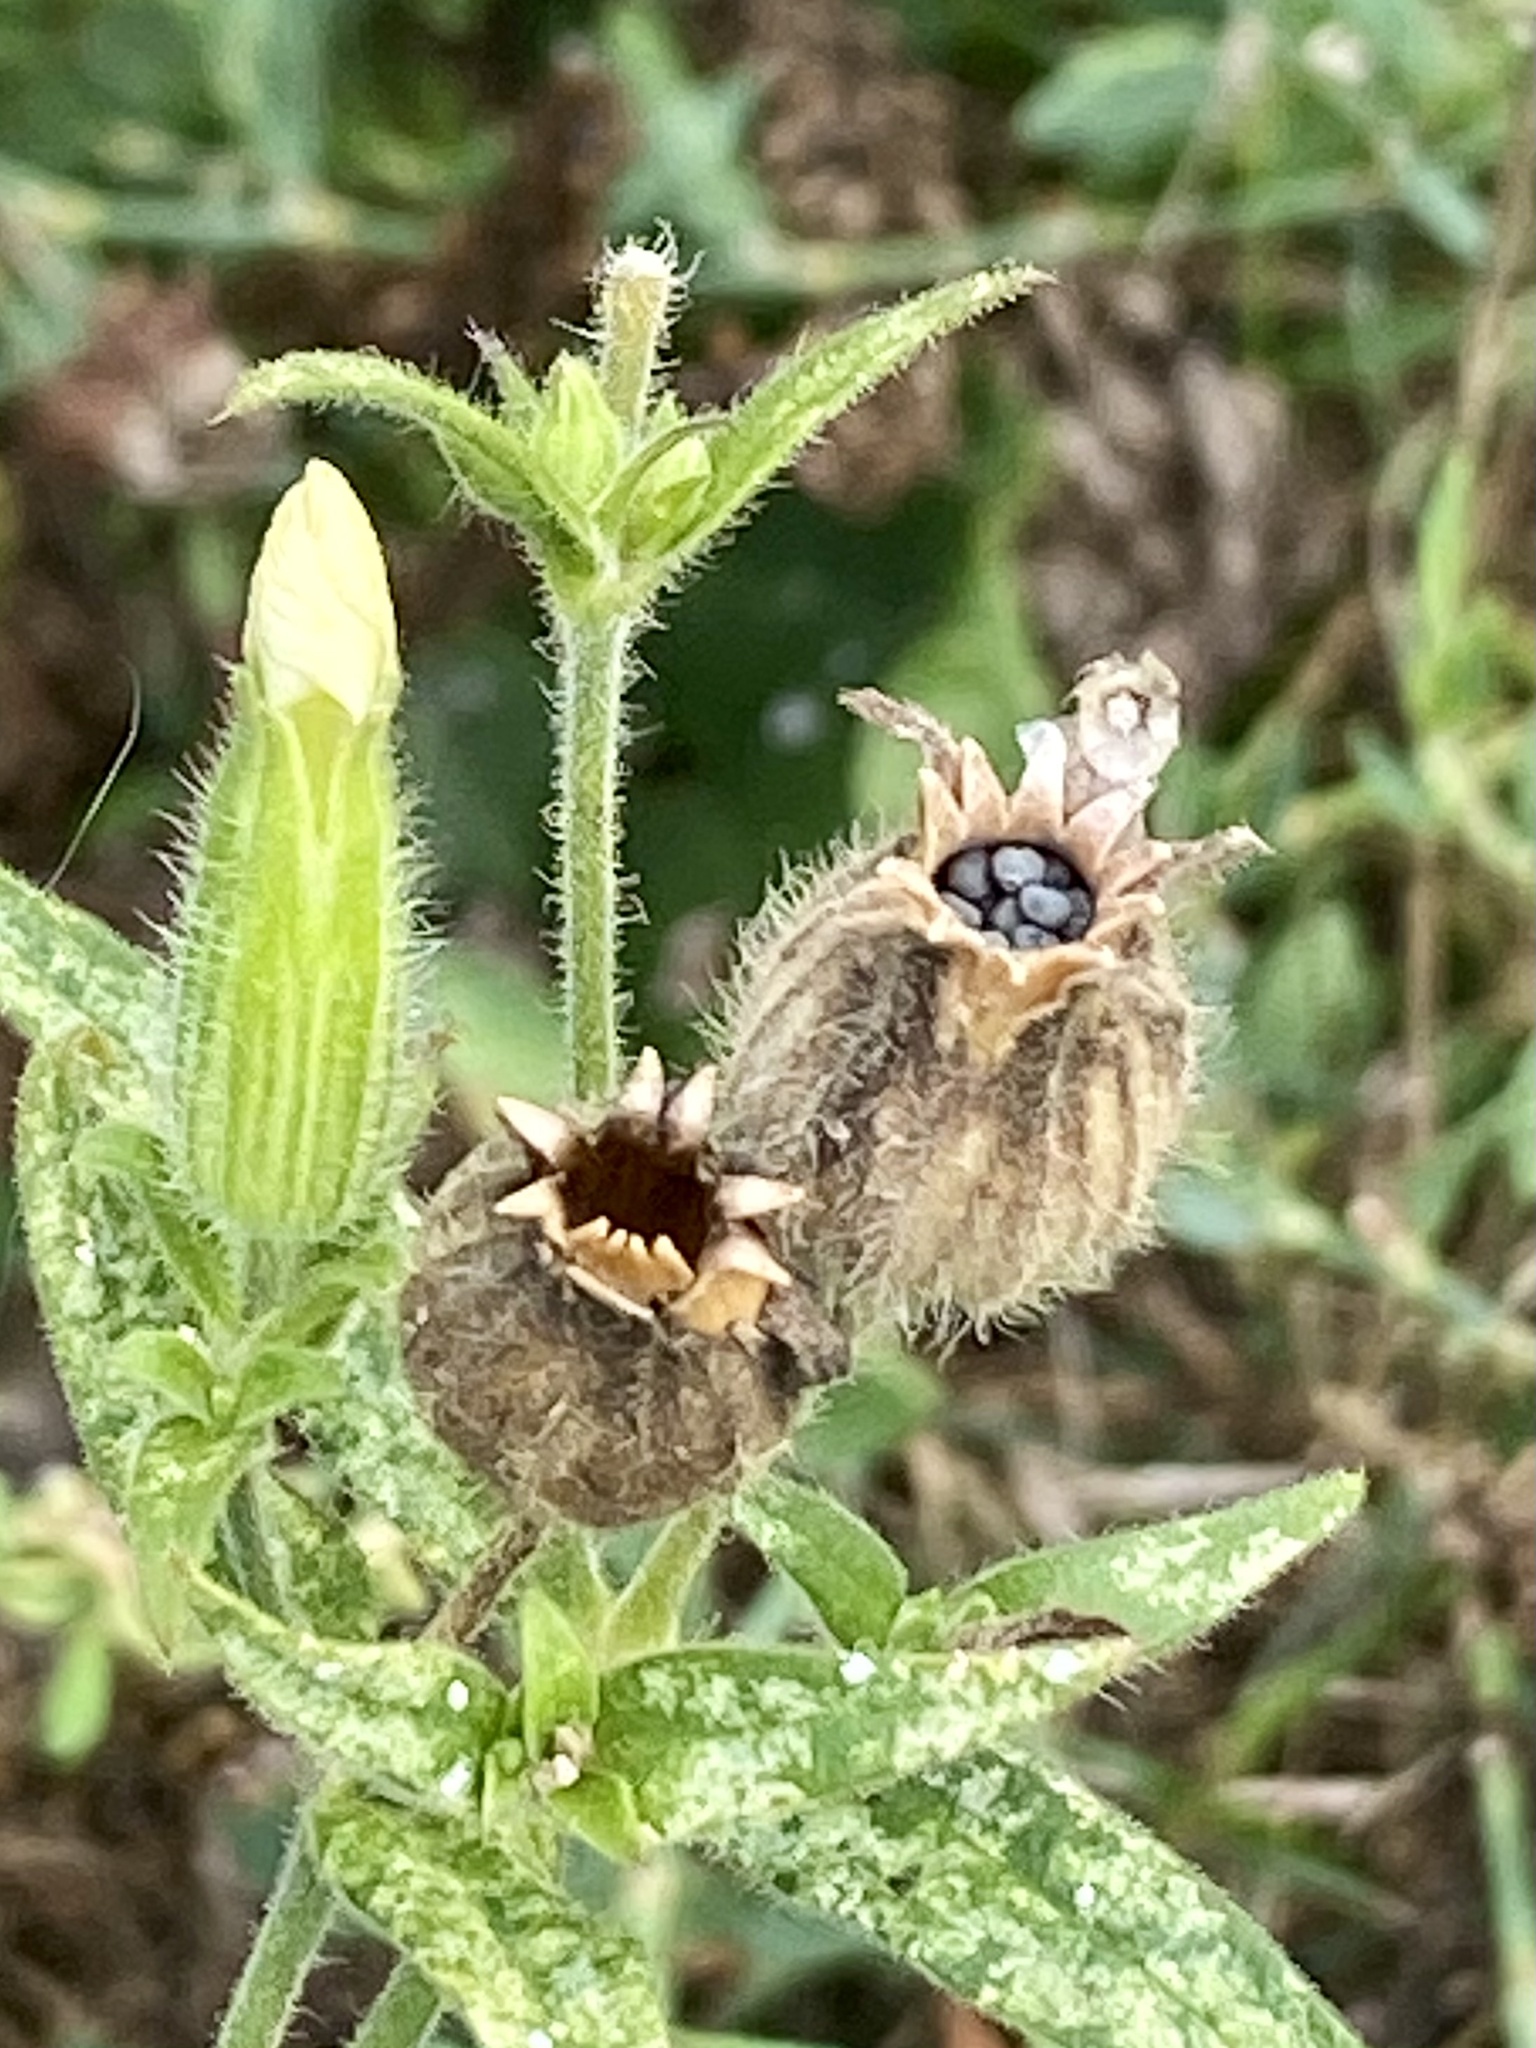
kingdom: Plantae
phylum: Tracheophyta
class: Magnoliopsida
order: Caryophyllales
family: Caryophyllaceae
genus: Silene
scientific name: Silene latifolia
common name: White campion
